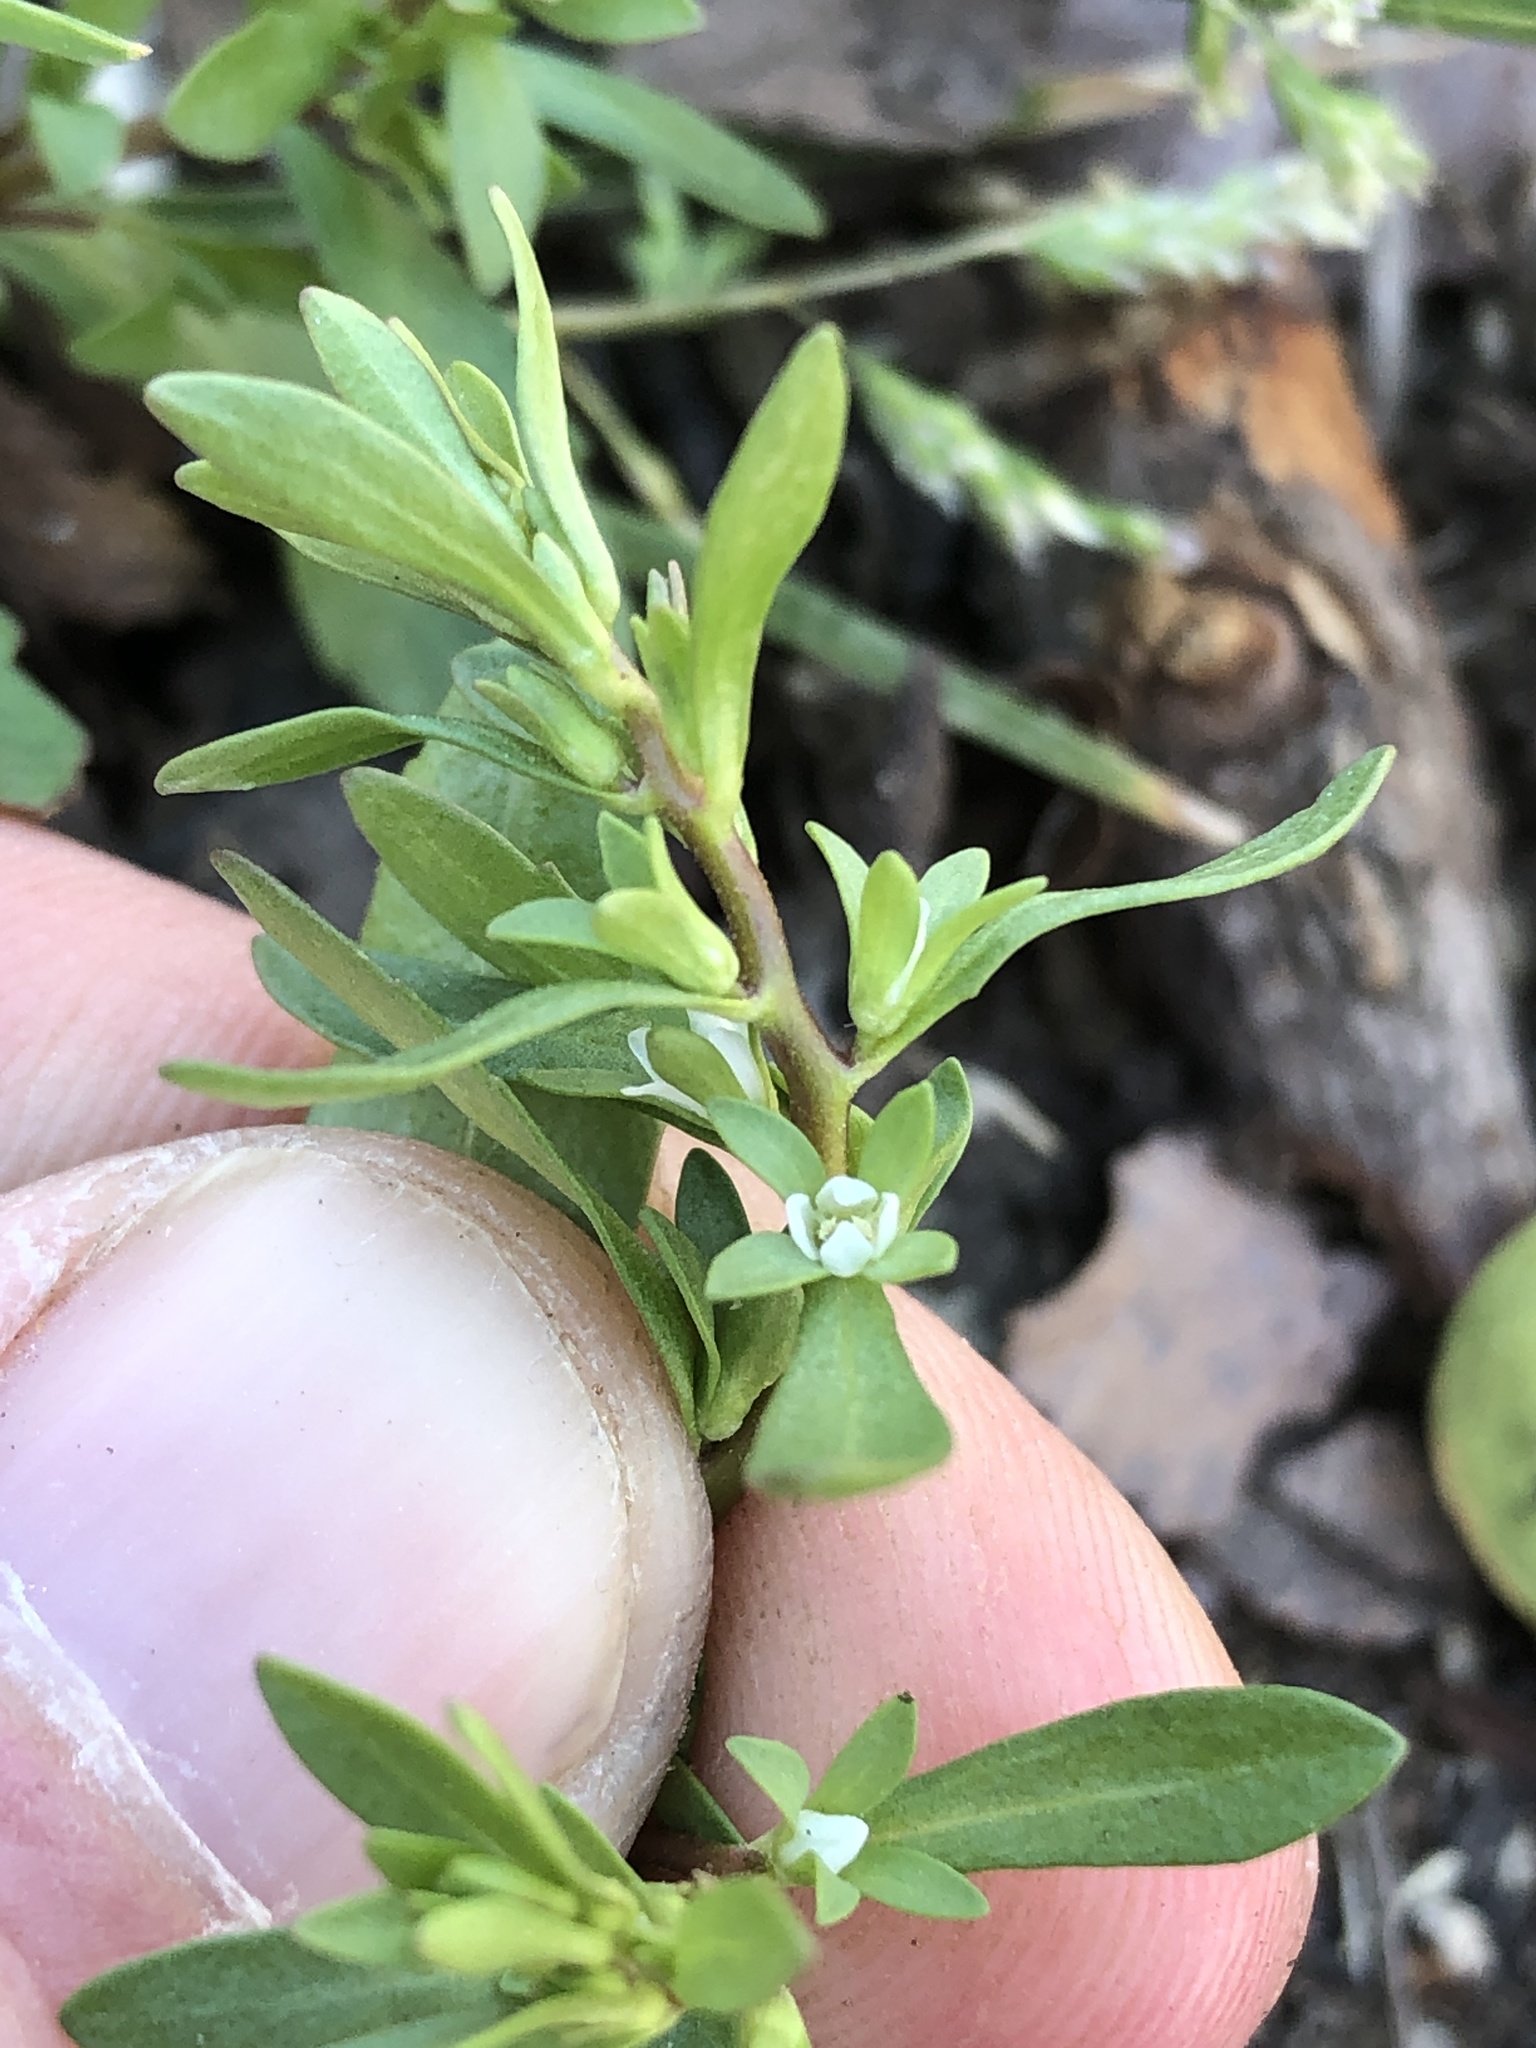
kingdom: Plantae
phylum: Tracheophyta
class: Magnoliopsida
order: Lamiales
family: Plantaginaceae
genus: Veronica
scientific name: Veronica peregrina
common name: Neckweed
